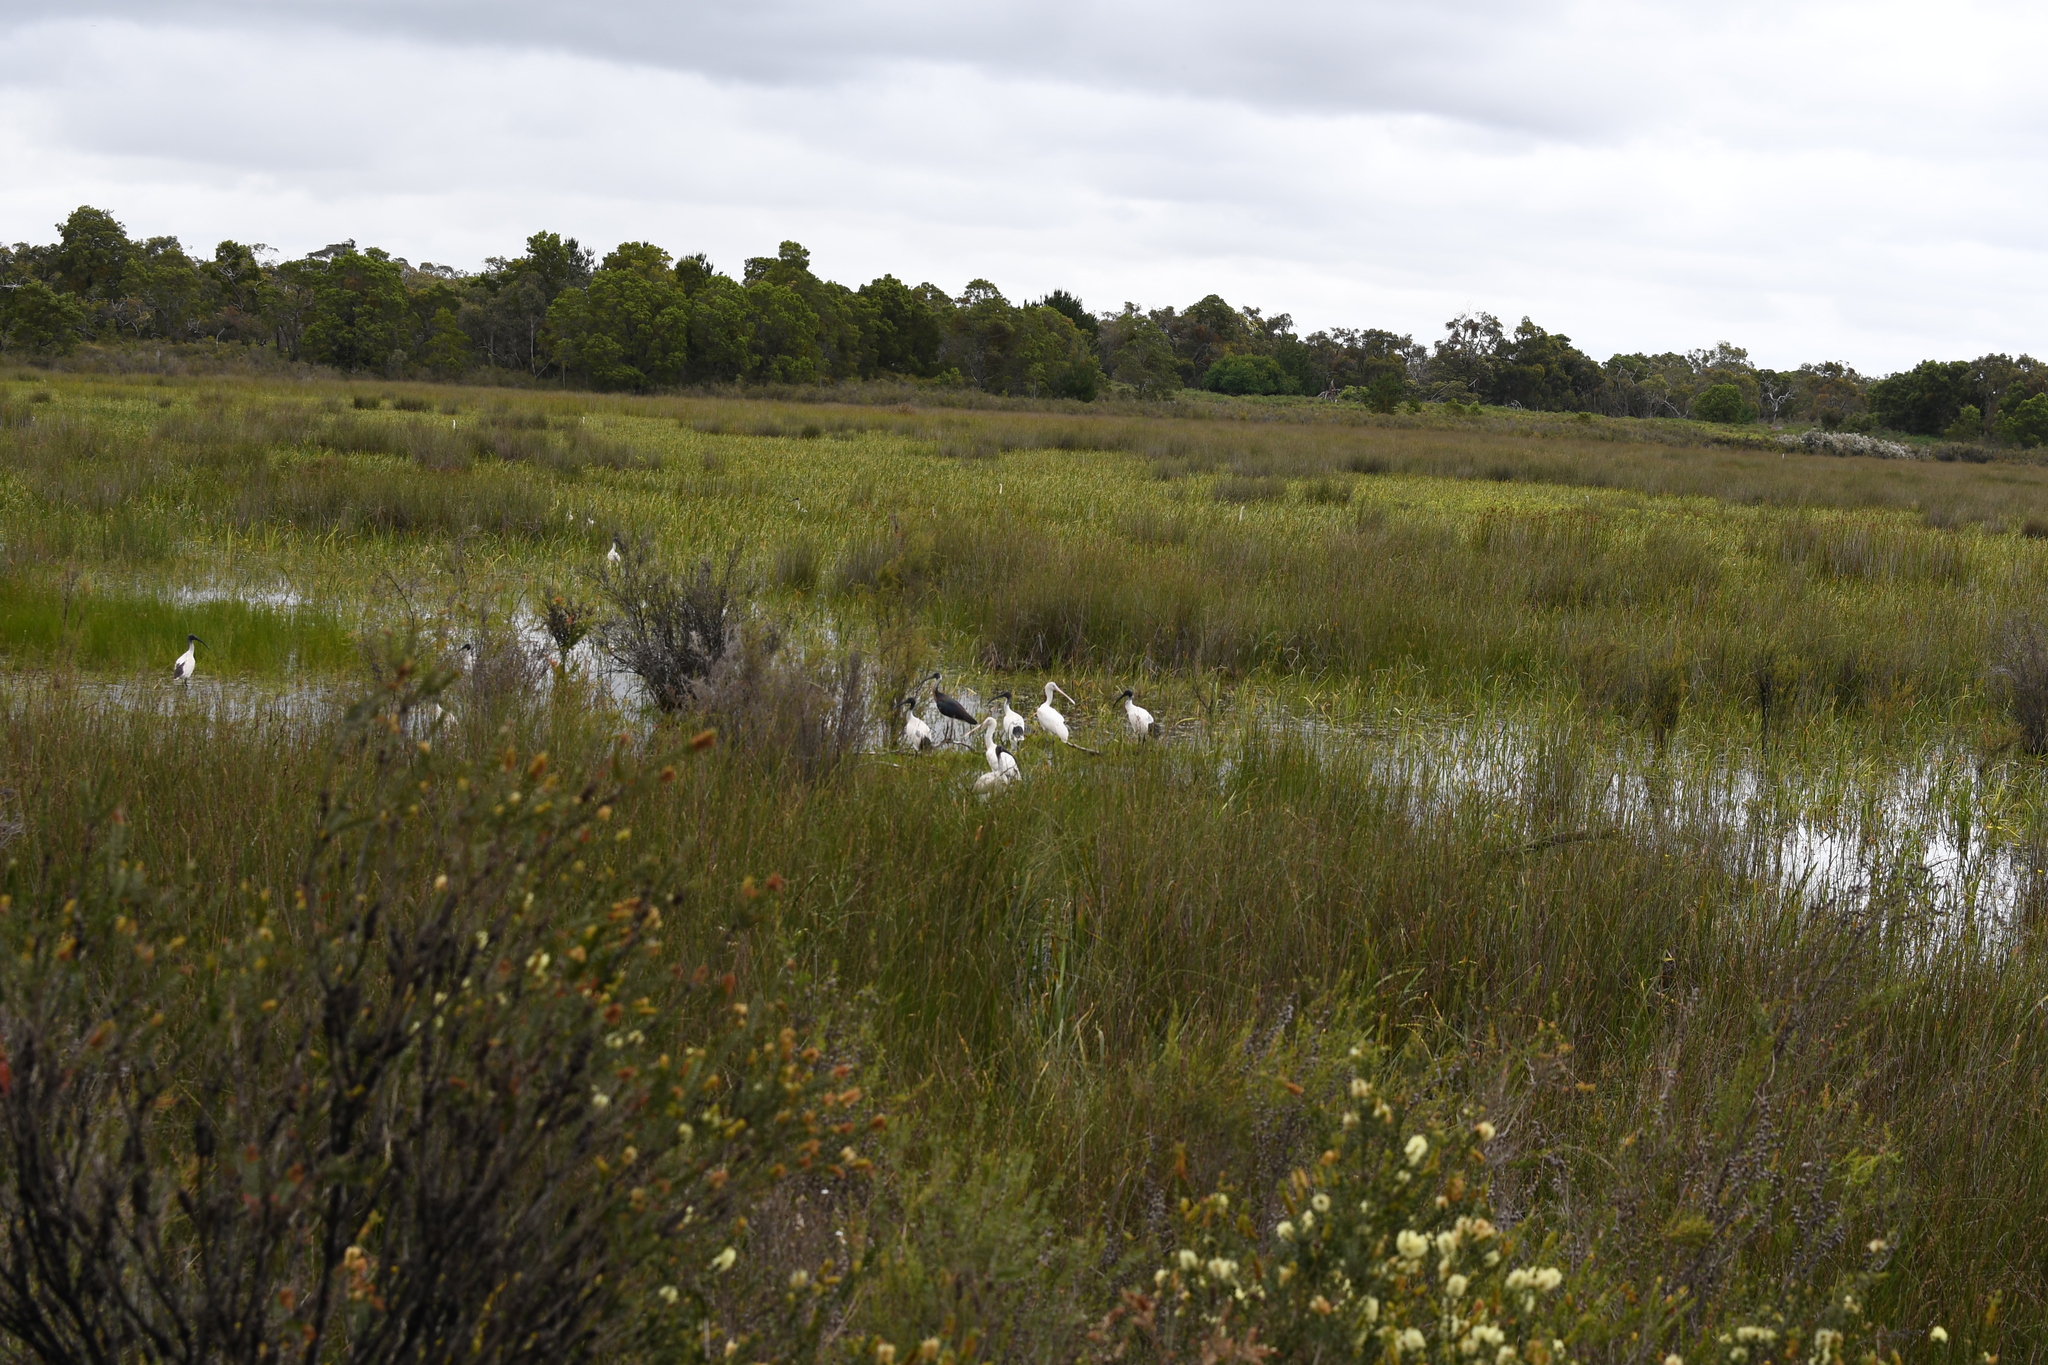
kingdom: Animalia
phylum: Chordata
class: Aves
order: Pelecaniformes
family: Threskiornithidae
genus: Platalea
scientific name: Platalea flavipes
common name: Yellow-billed spoonbill
